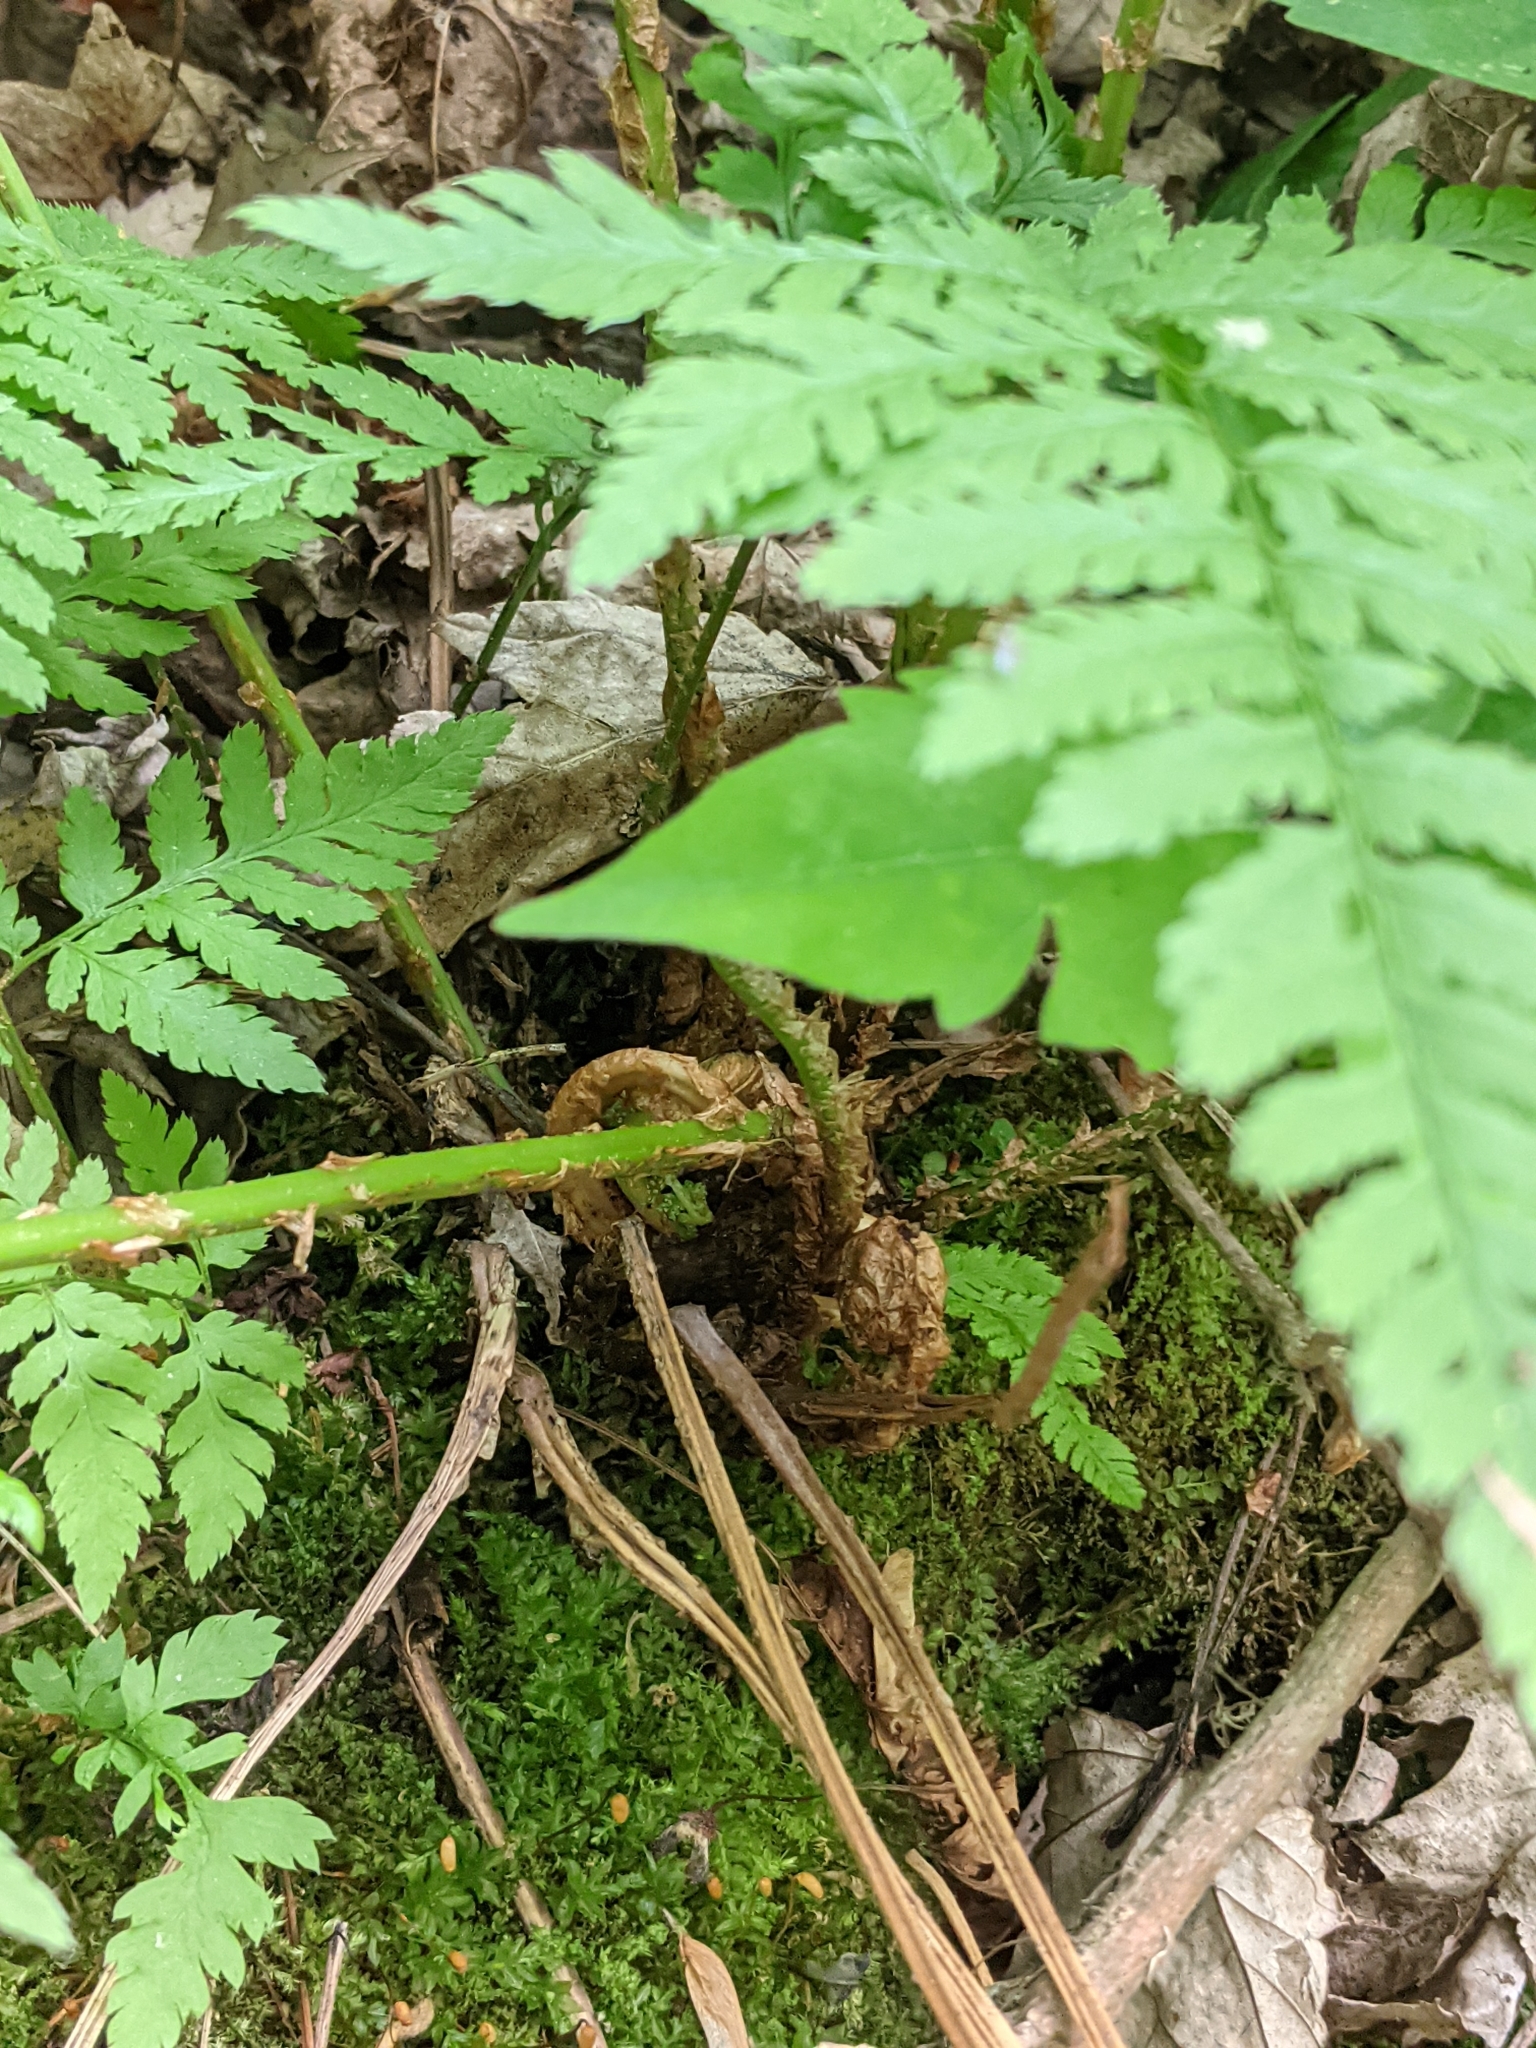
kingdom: Plantae
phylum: Tracheophyta
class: Polypodiopsida
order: Polypodiales
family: Dryopteridaceae
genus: Dryopteris
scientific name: Dryopteris carthusiana
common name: Narrow buckler-fern
